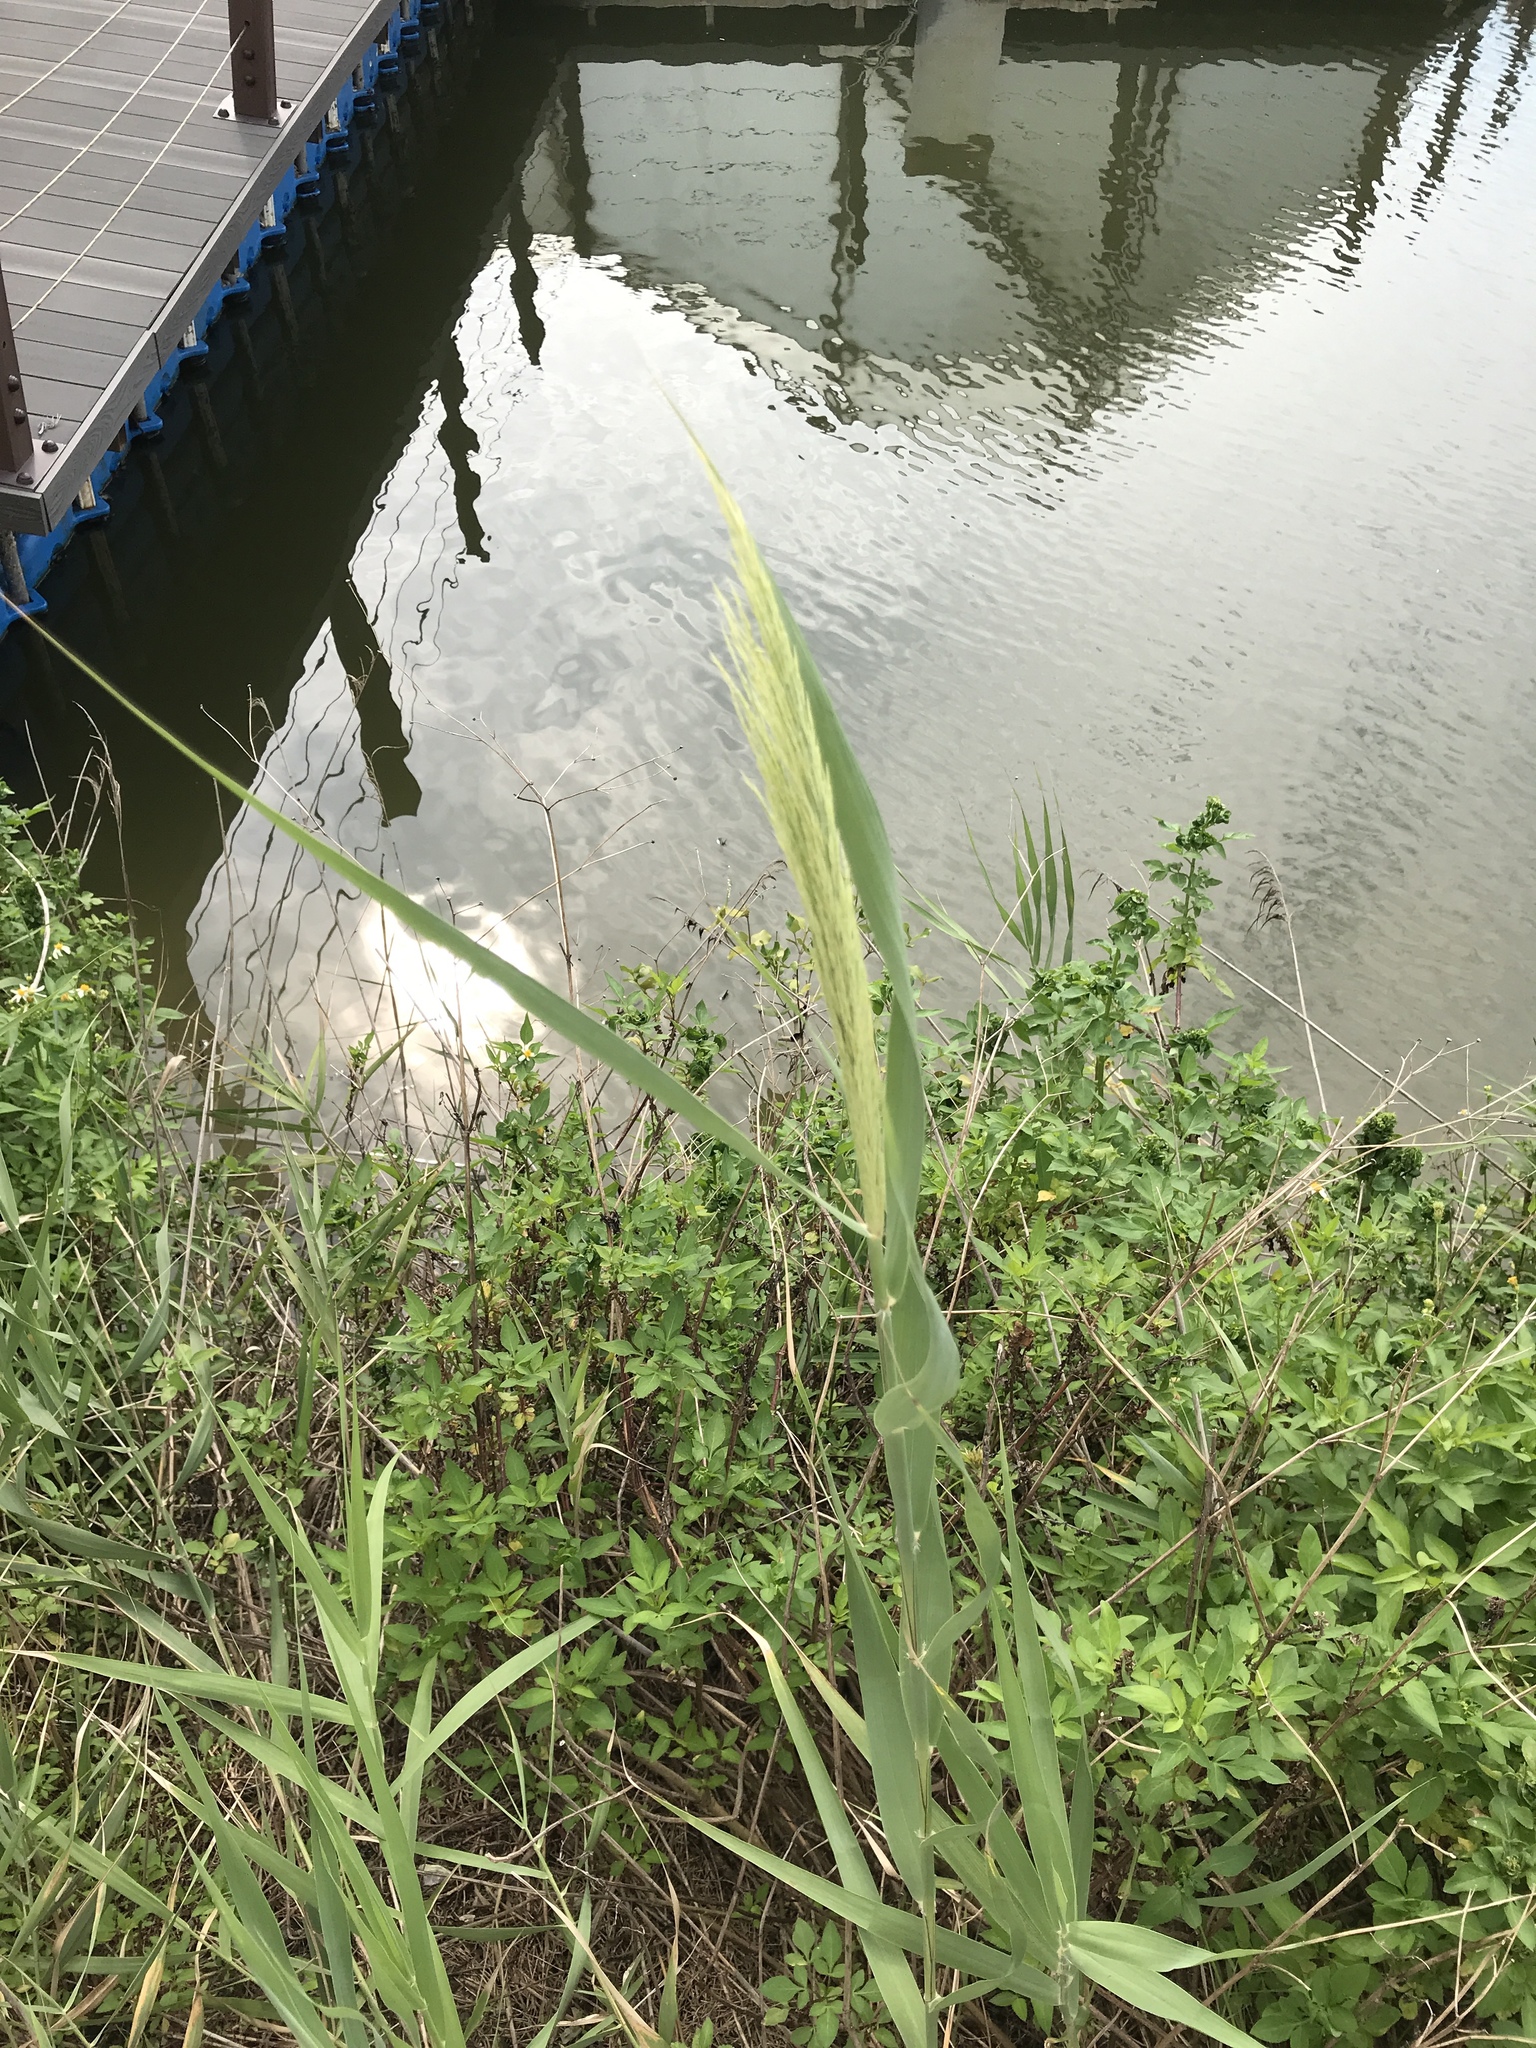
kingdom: Plantae
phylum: Tracheophyta
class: Liliopsida
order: Poales
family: Poaceae
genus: Phragmites
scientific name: Phragmites australis
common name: Common reed
